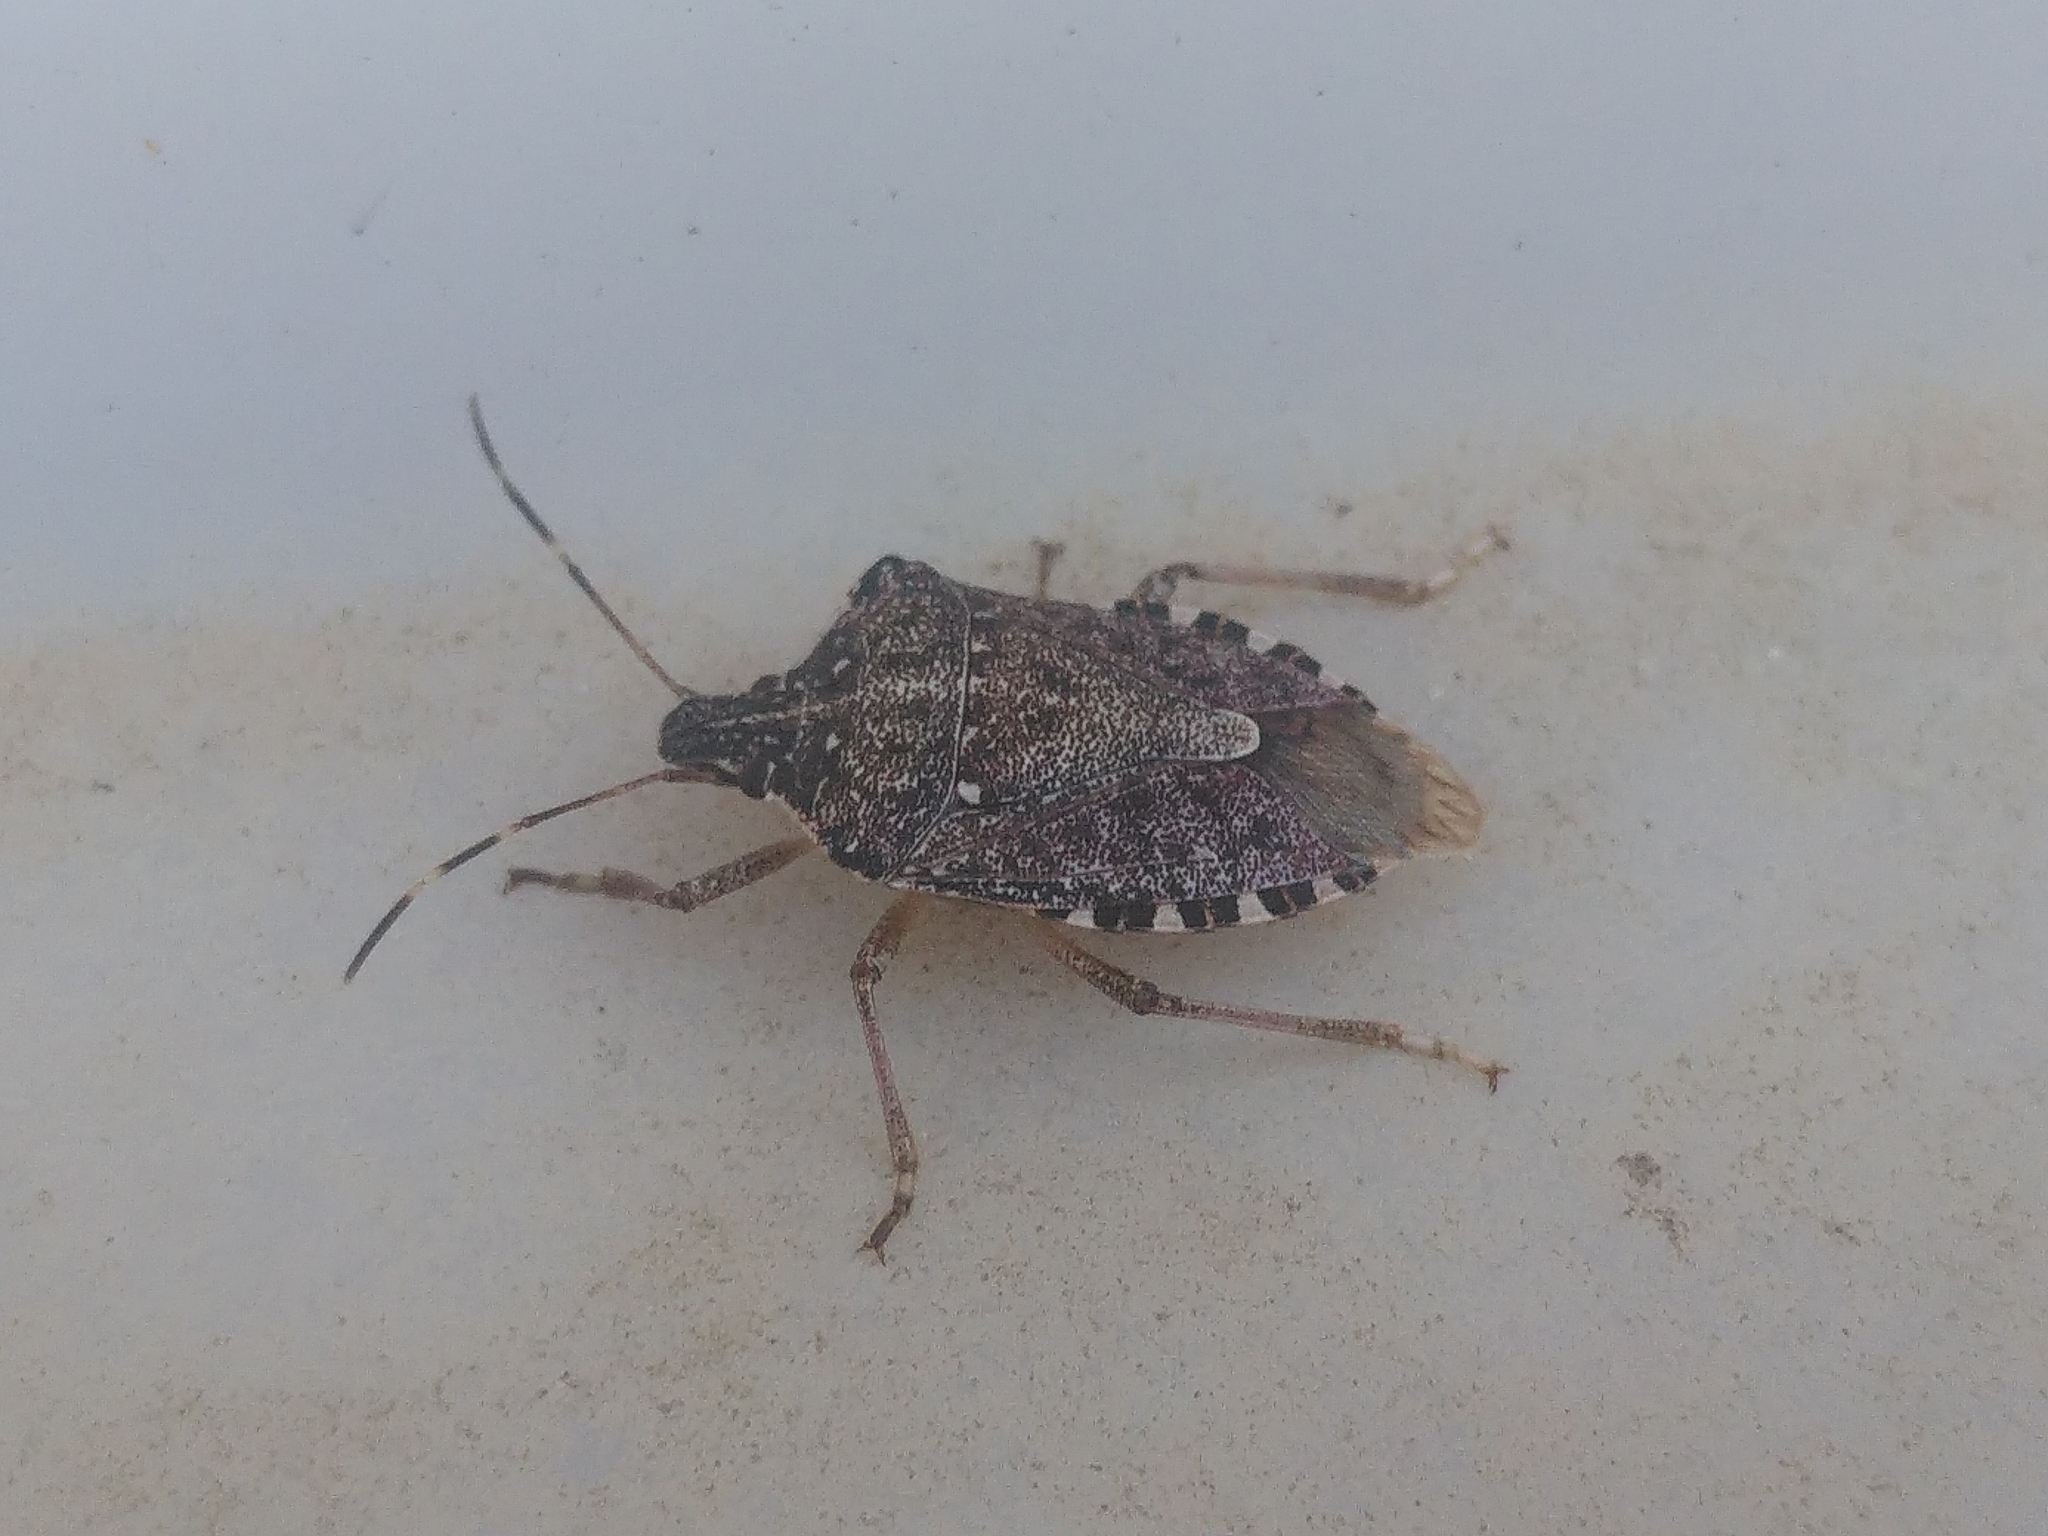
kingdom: Animalia
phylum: Arthropoda
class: Insecta
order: Hemiptera
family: Pentatomidae
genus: Halyomorpha
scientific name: Halyomorpha halys
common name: Brown marmorated stink bug
